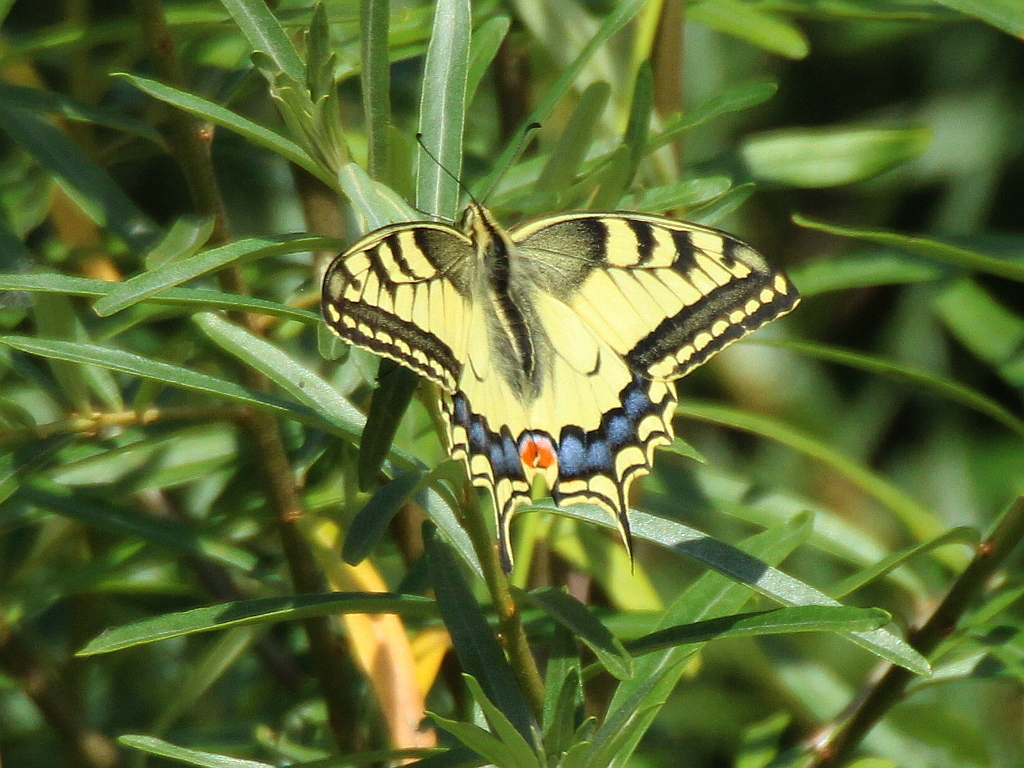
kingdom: Animalia
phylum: Arthropoda
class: Insecta
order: Lepidoptera
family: Papilionidae
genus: Papilio
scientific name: Papilio machaon
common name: Swallowtail
